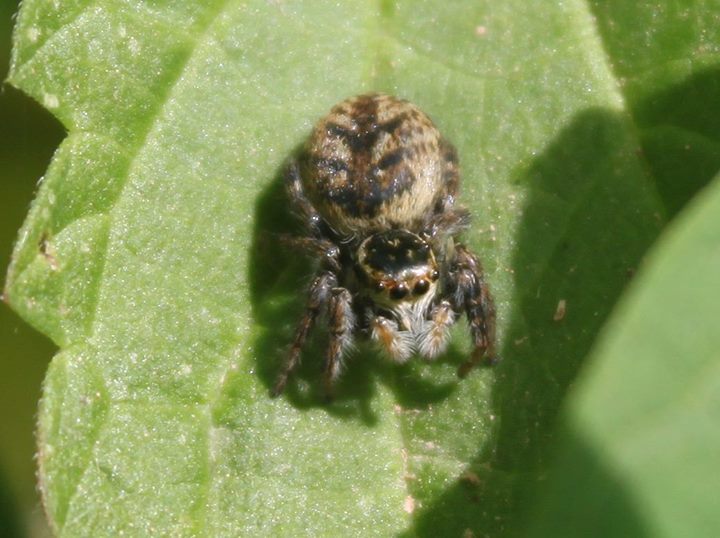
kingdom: Animalia
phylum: Arthropoda
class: Arachnida
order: Araneae
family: Salticidae
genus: Carrhotus
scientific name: Carrhotus xanthogramma
